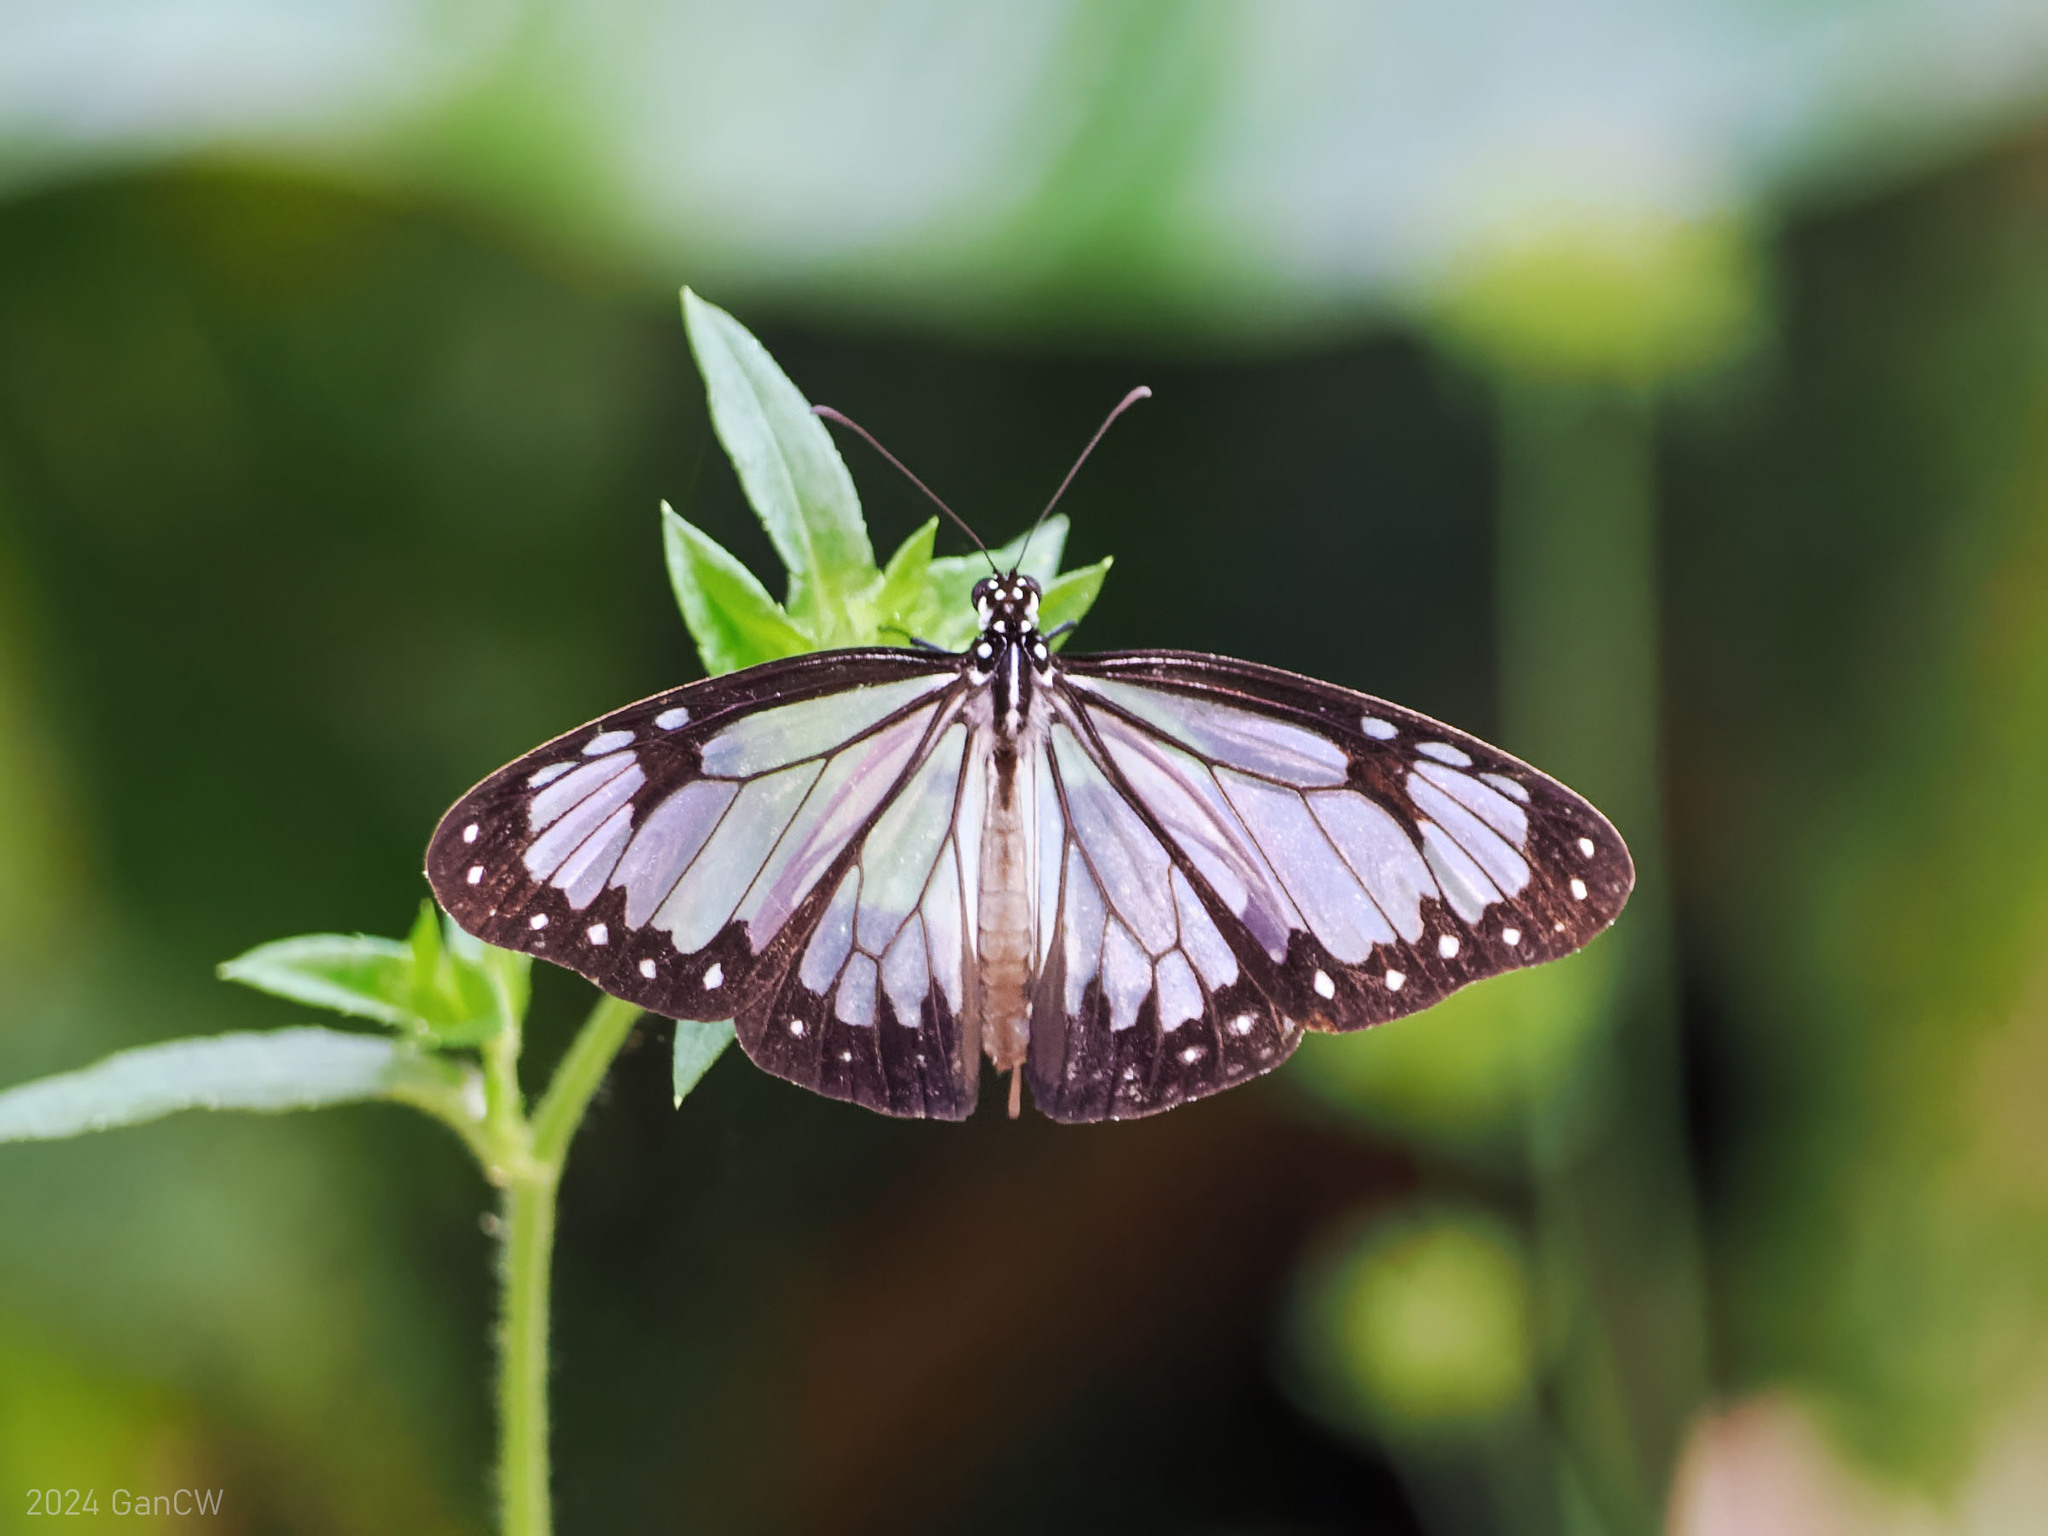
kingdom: Animalia
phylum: Arthropoda
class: Insecta
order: Lepidoptera
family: Nymphalidae
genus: Parantica
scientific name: Parantica vitrina
